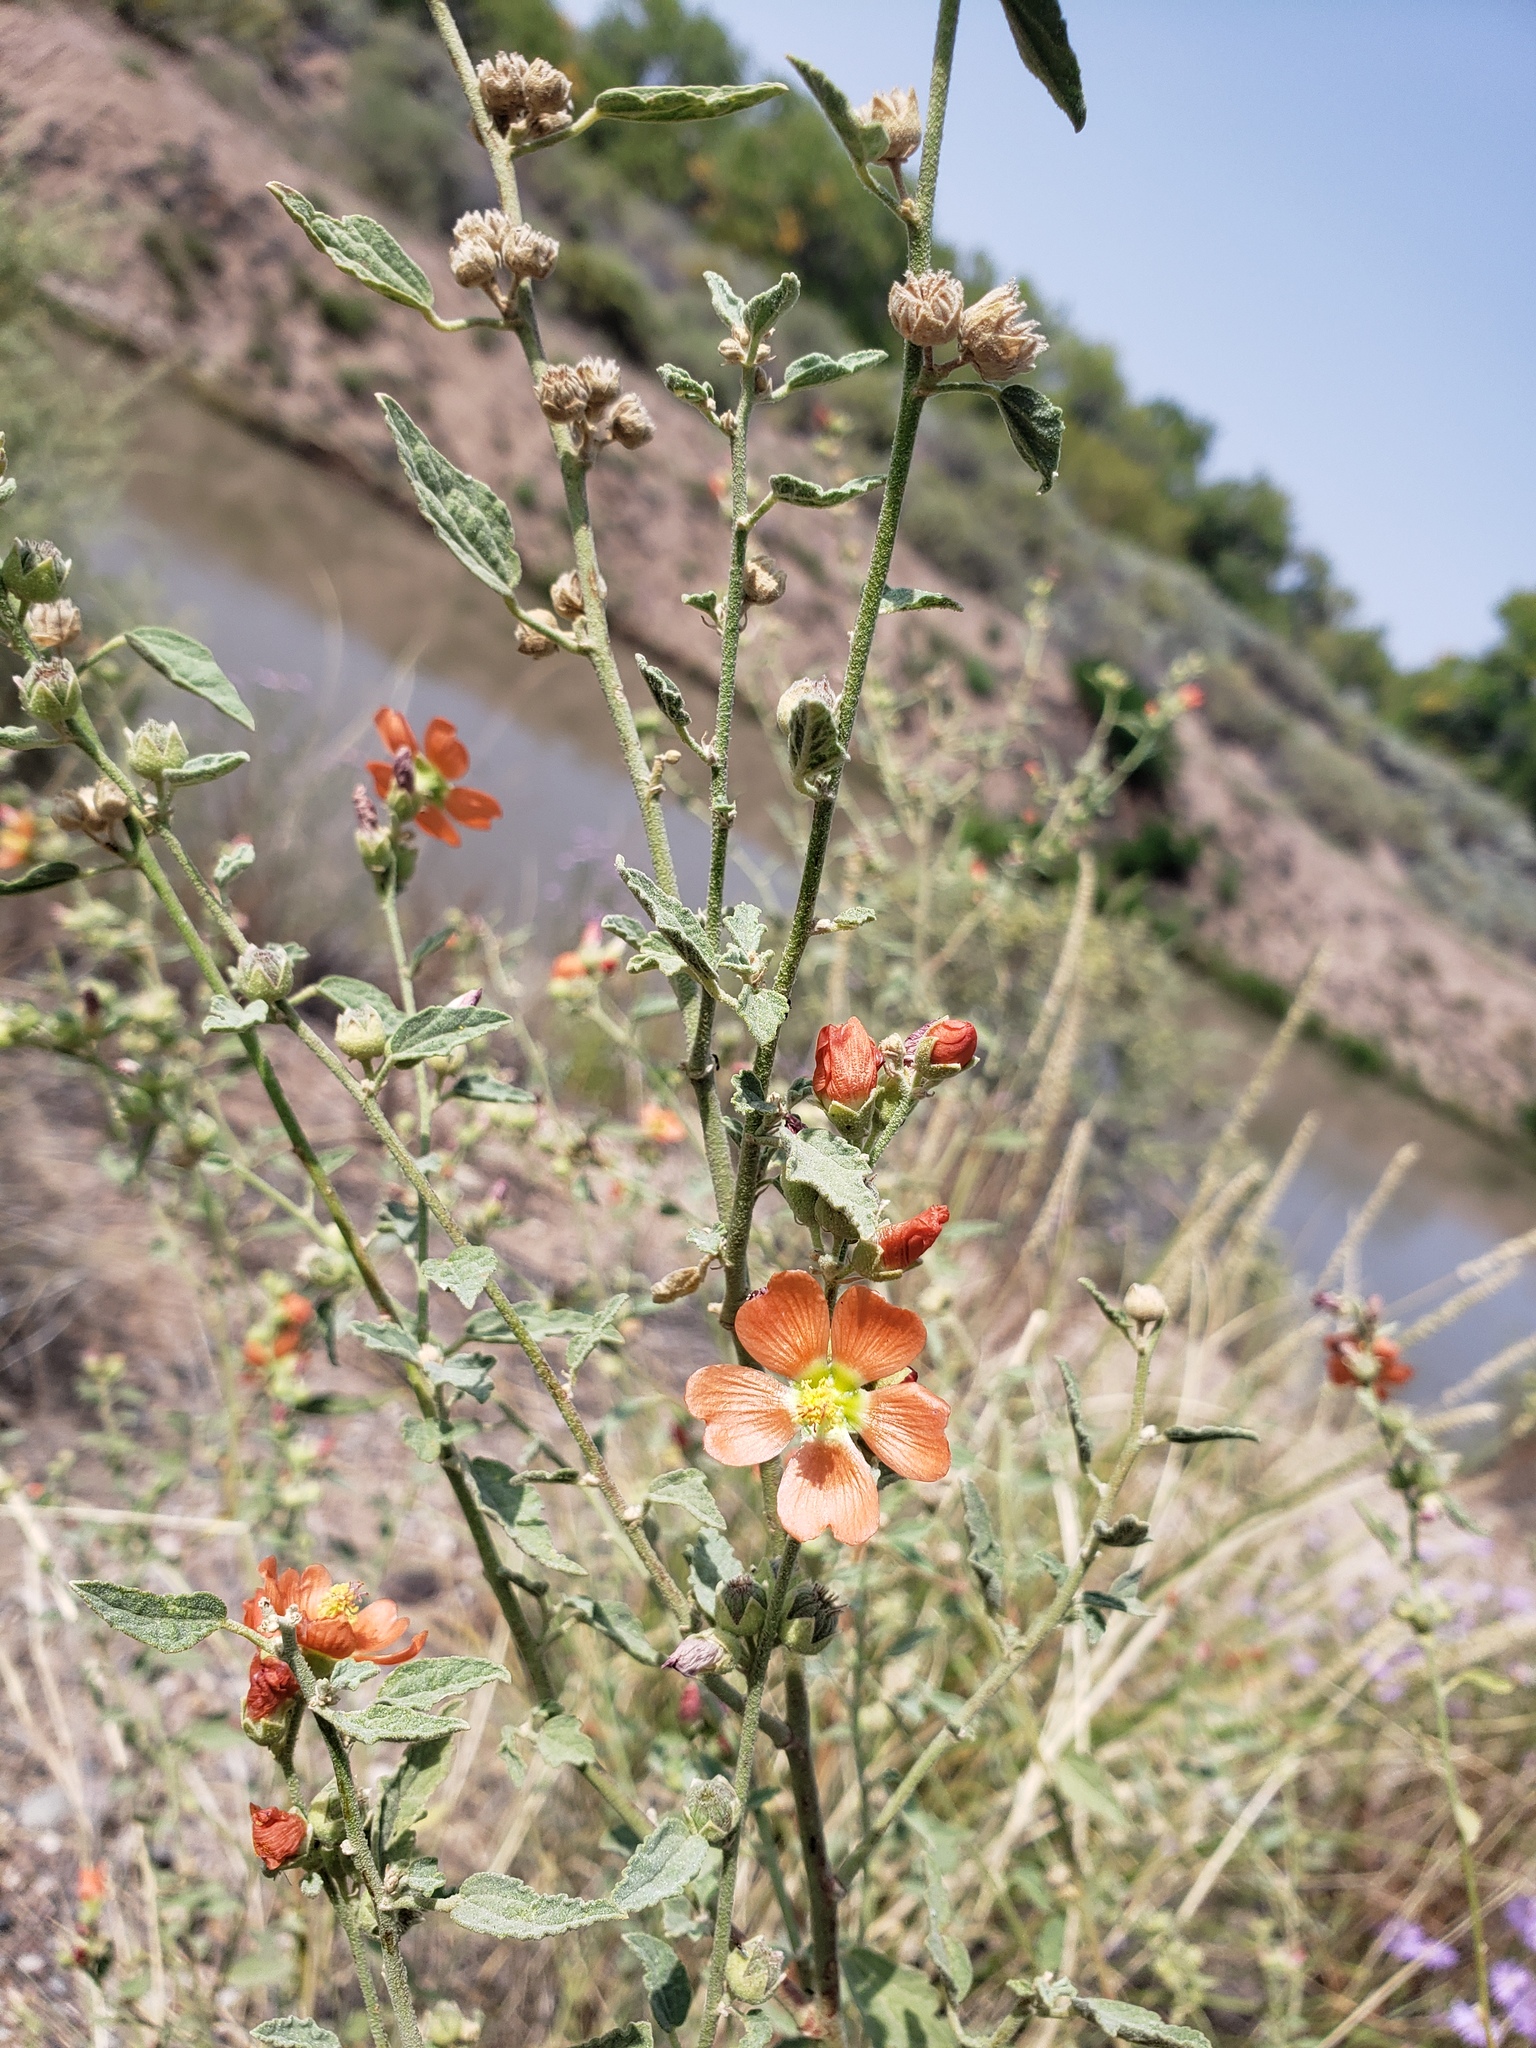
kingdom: Plantae
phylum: Tracheophyta
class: Magnoliopsida
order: Malvales
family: Malvaceae
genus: Sphaeralcea
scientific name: Sphaeralcea incana
